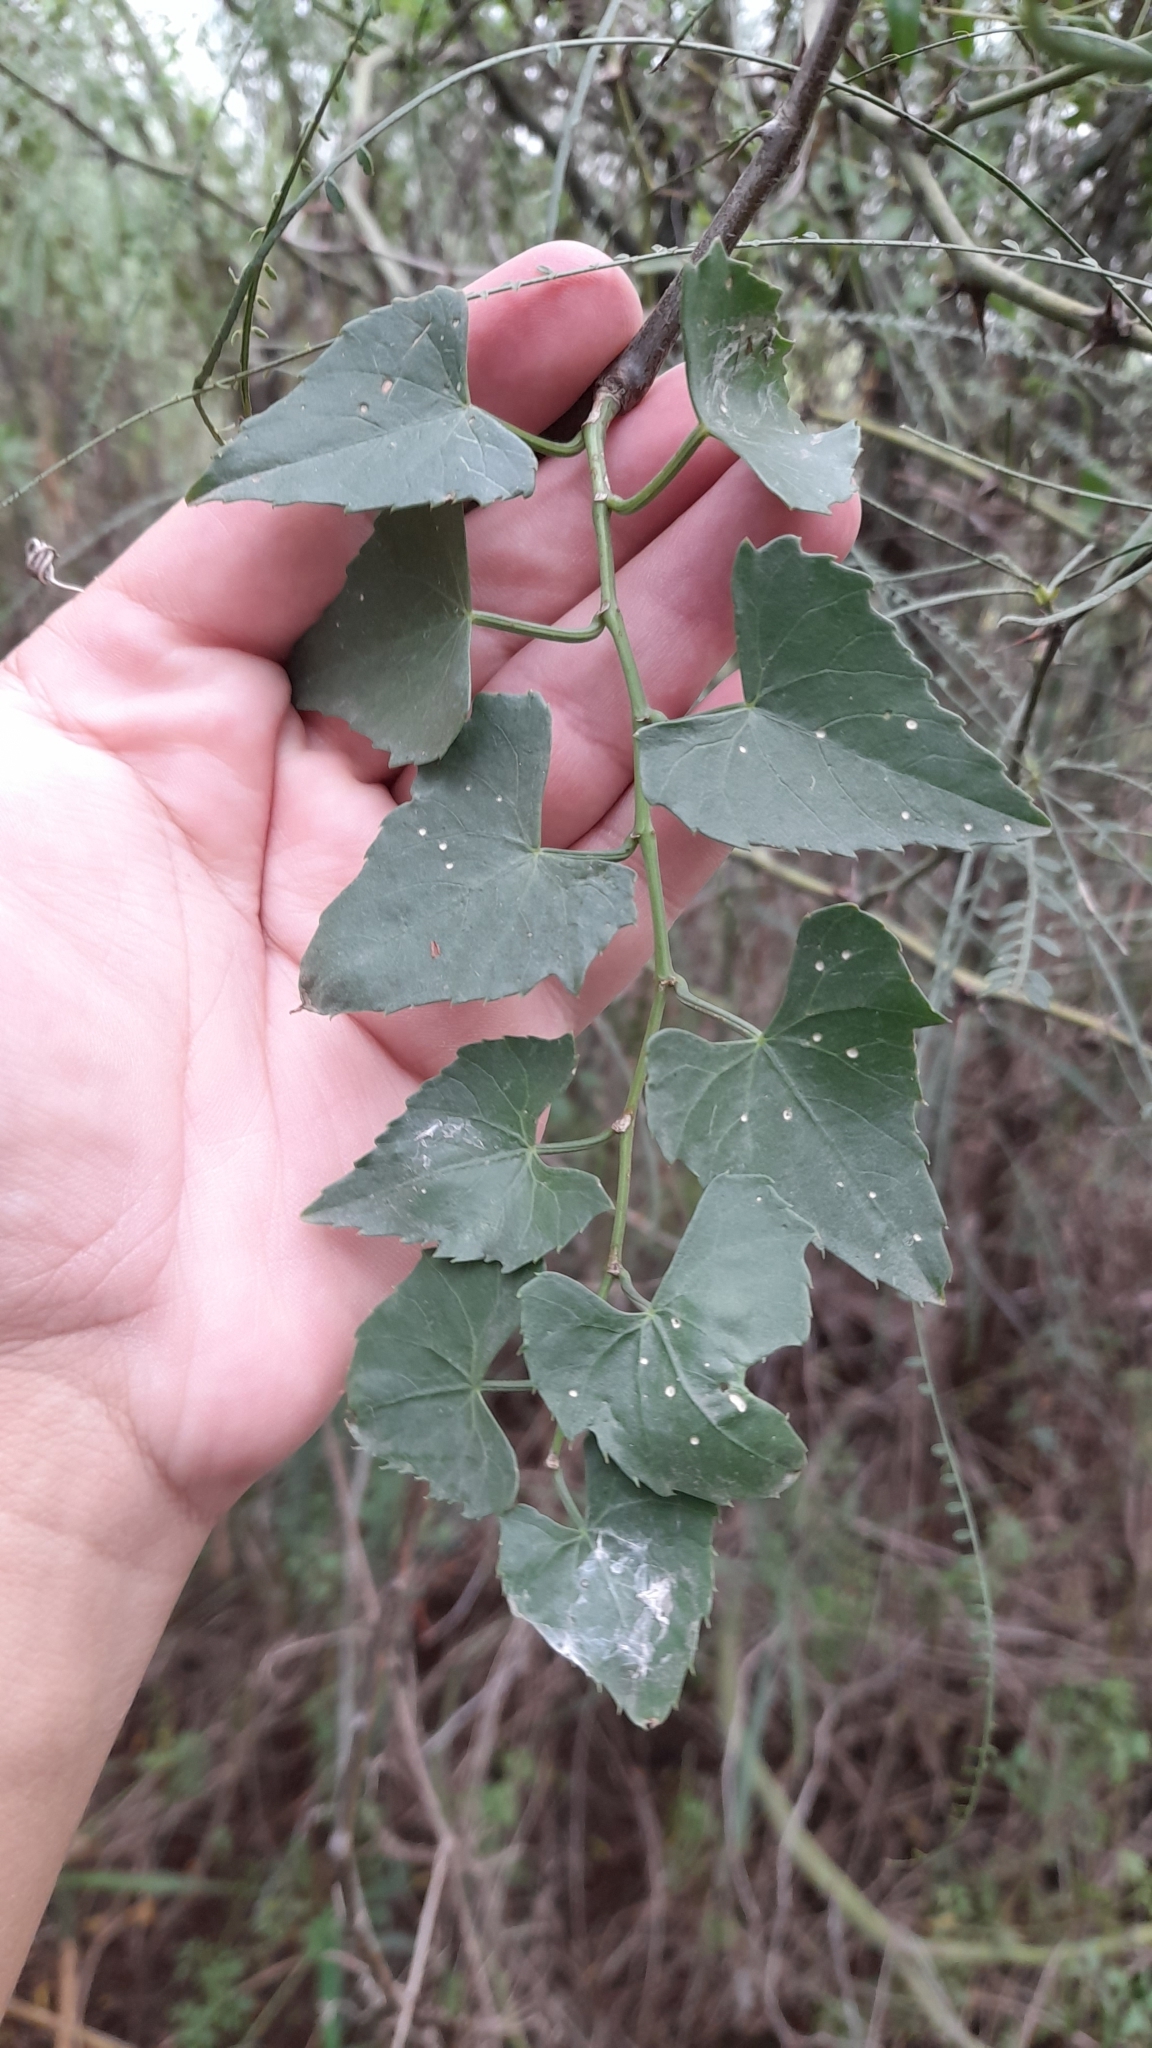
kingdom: Plantae
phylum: Tracheophyta
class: Magnoliopsida
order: Vitales
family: Vitaceae
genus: Cissus
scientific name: Cissus verticillata
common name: Princess vine
